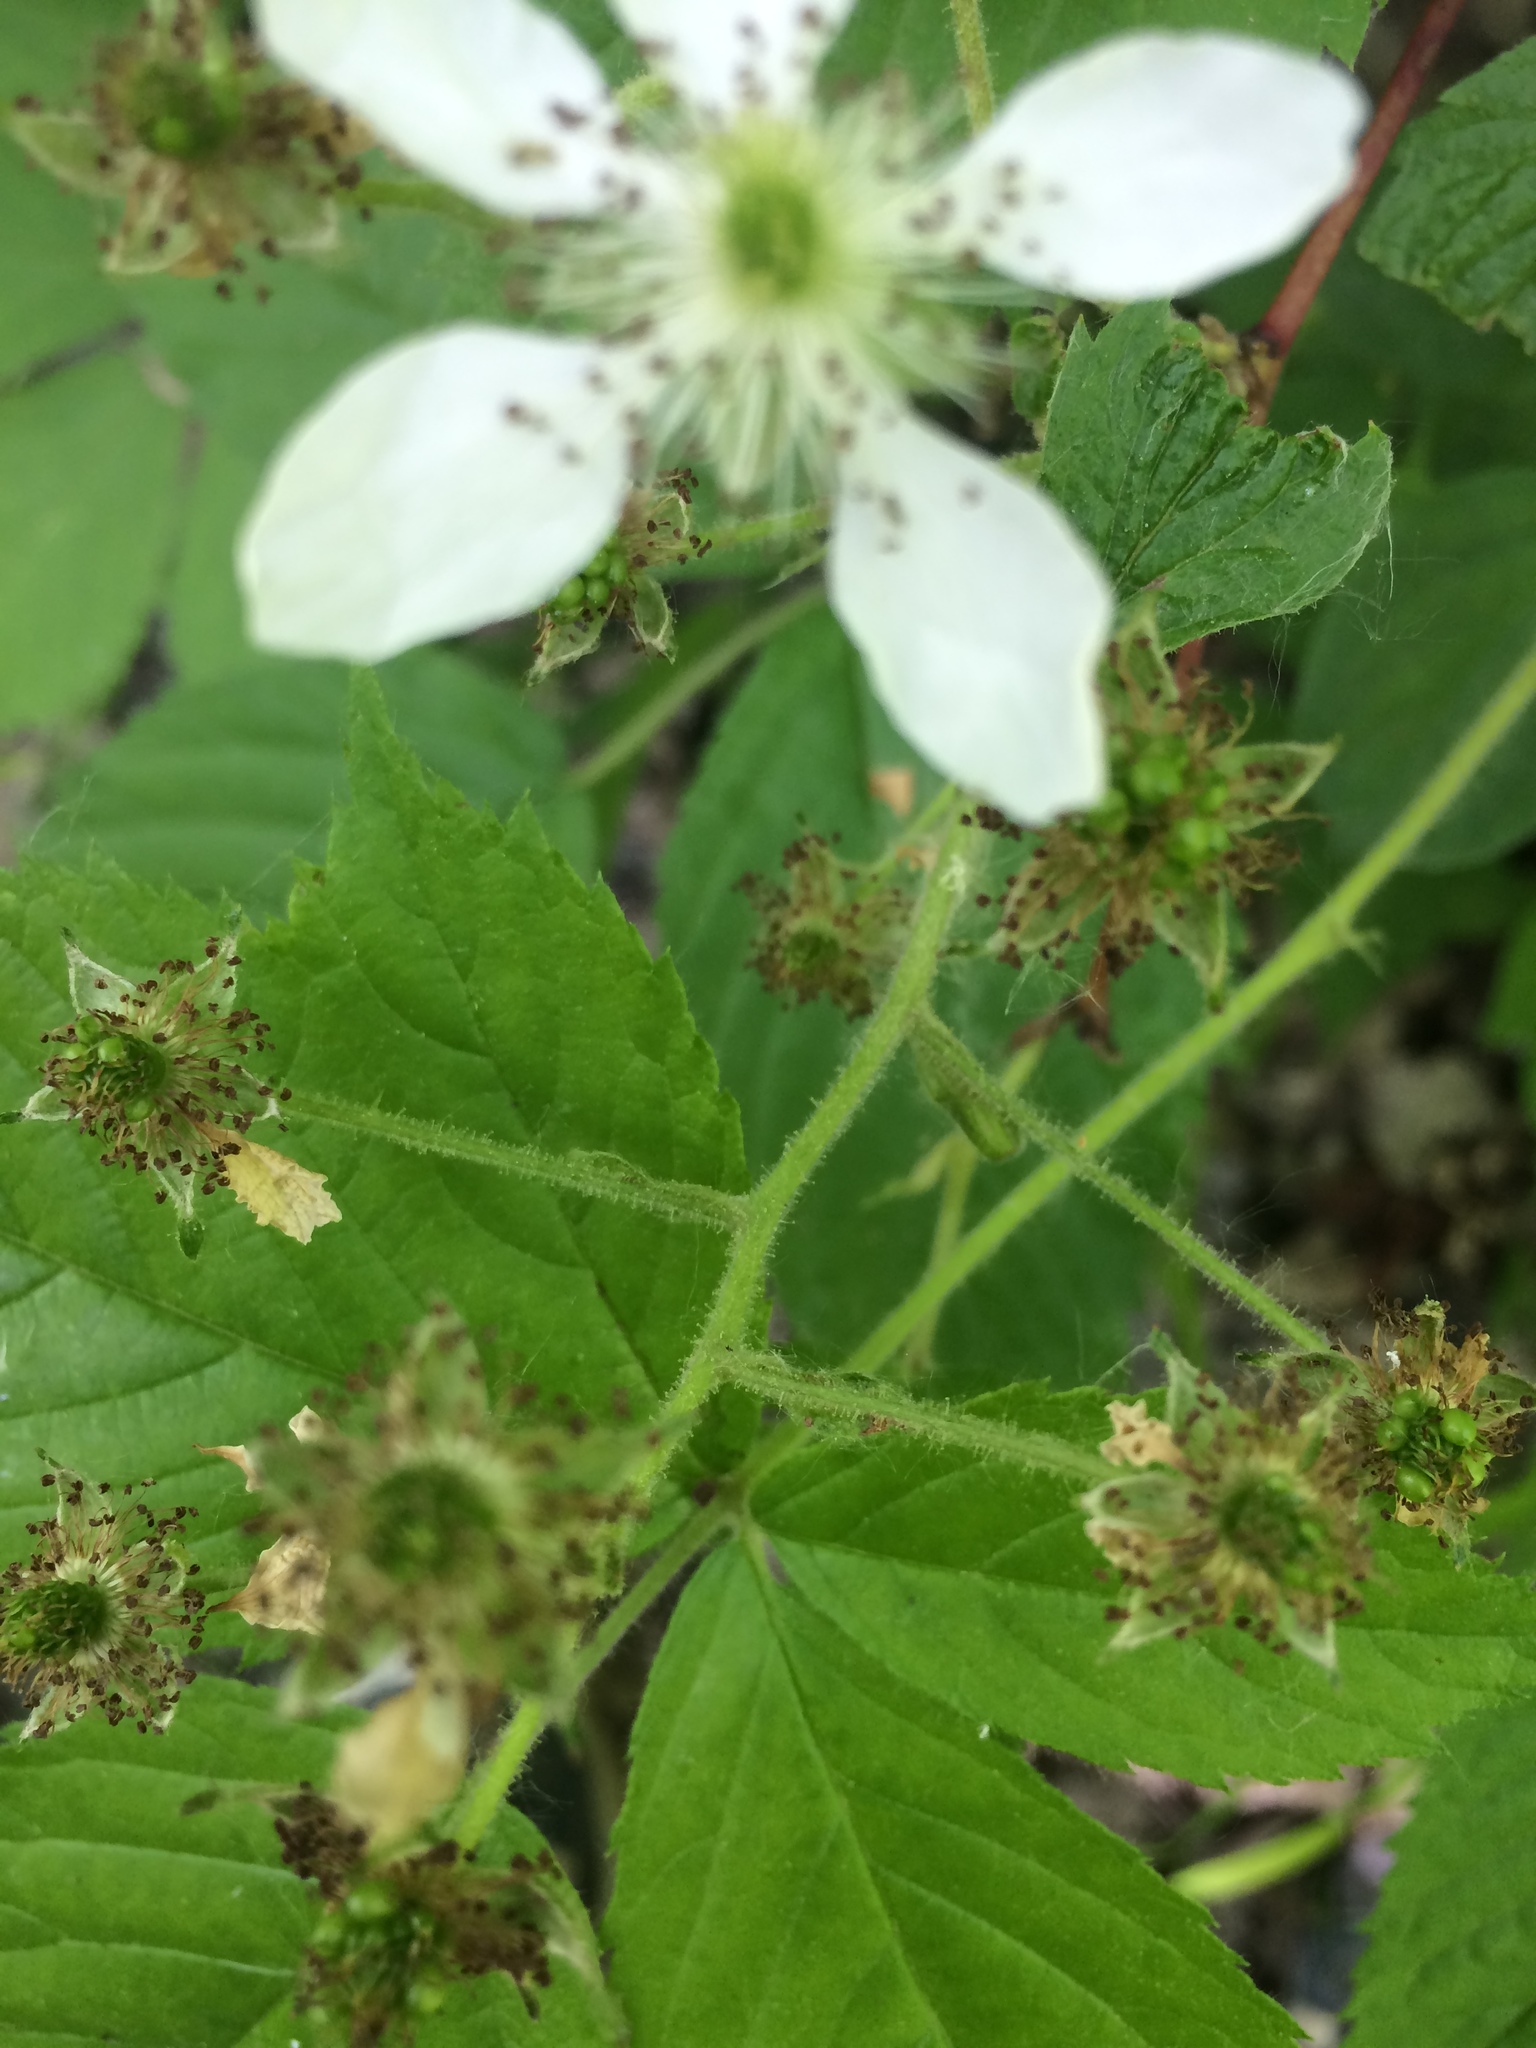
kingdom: Plantae
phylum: Tracheophyta
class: Magnoliopsida
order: Rosales
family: Rosaceae
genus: Rubus
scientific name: Rubus allegheniensis
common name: Allegheny blackberry
